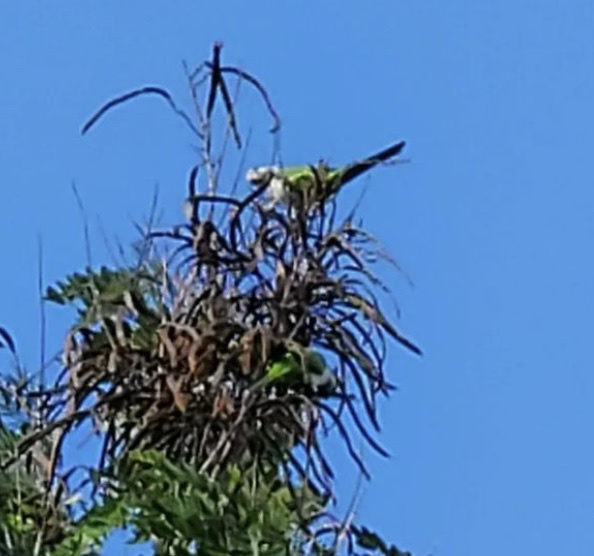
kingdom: Animalia
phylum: Chordata
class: Aves
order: Psittaciformes
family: Psittacidae
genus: Myiopsitta
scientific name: Myiopsitta monachus
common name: Monk parakeet
